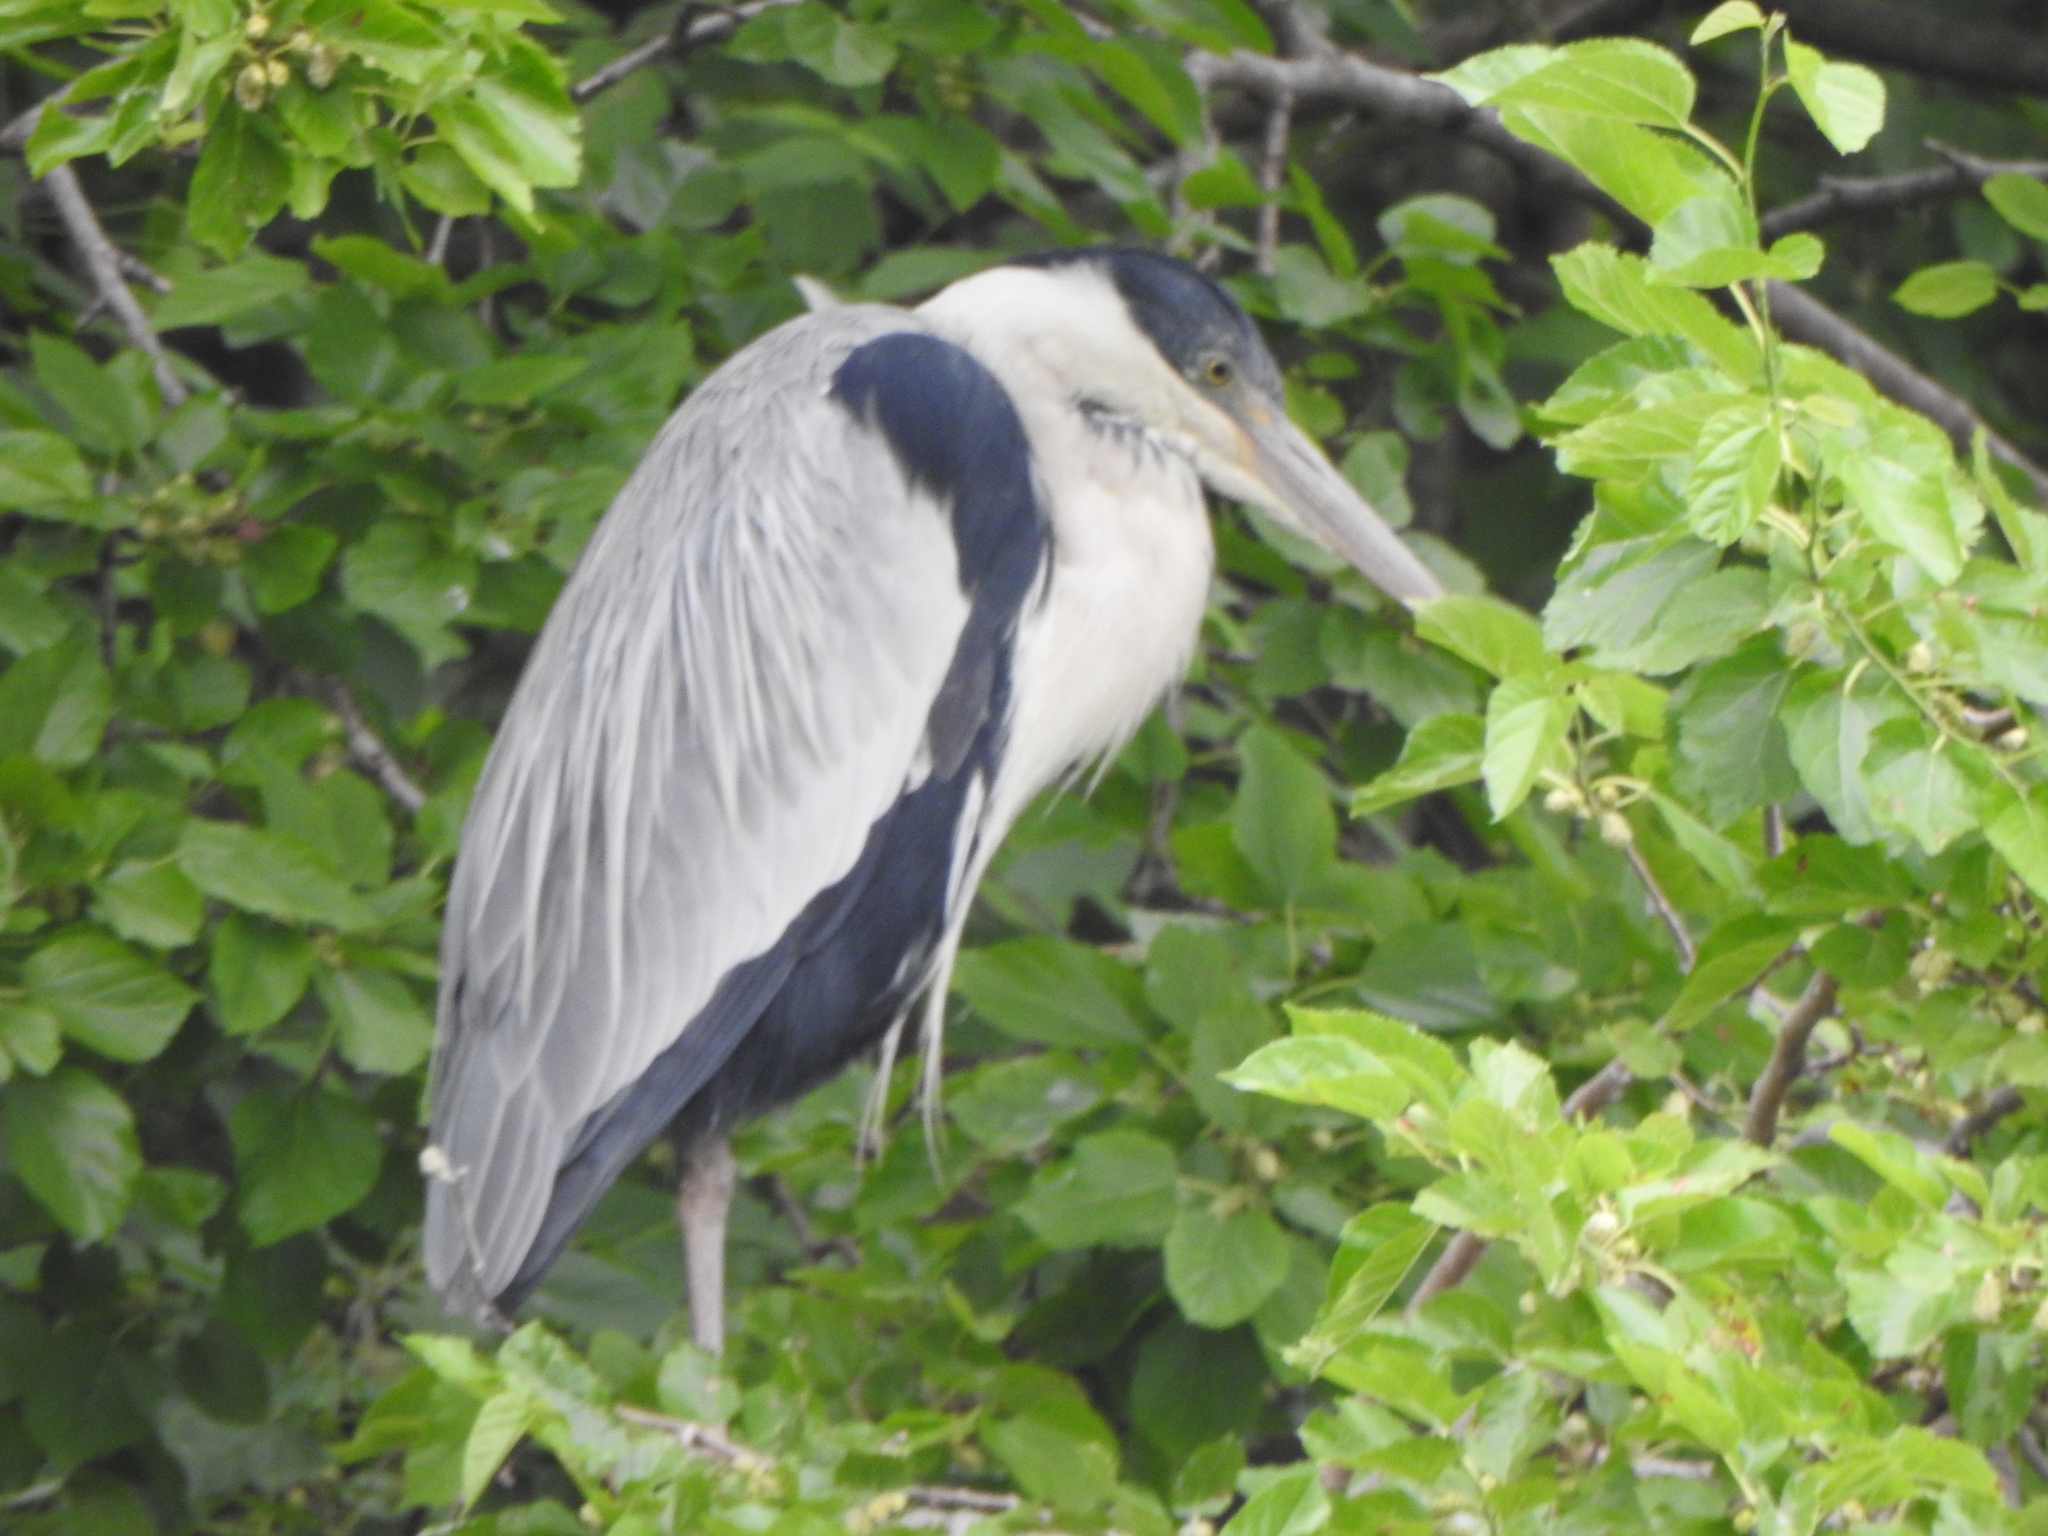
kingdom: Animalia
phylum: Chordata
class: Aves
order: Pelecaniformes
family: Ardeidae
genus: Ardea
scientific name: Ardea cocoi
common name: Cocoi heron
